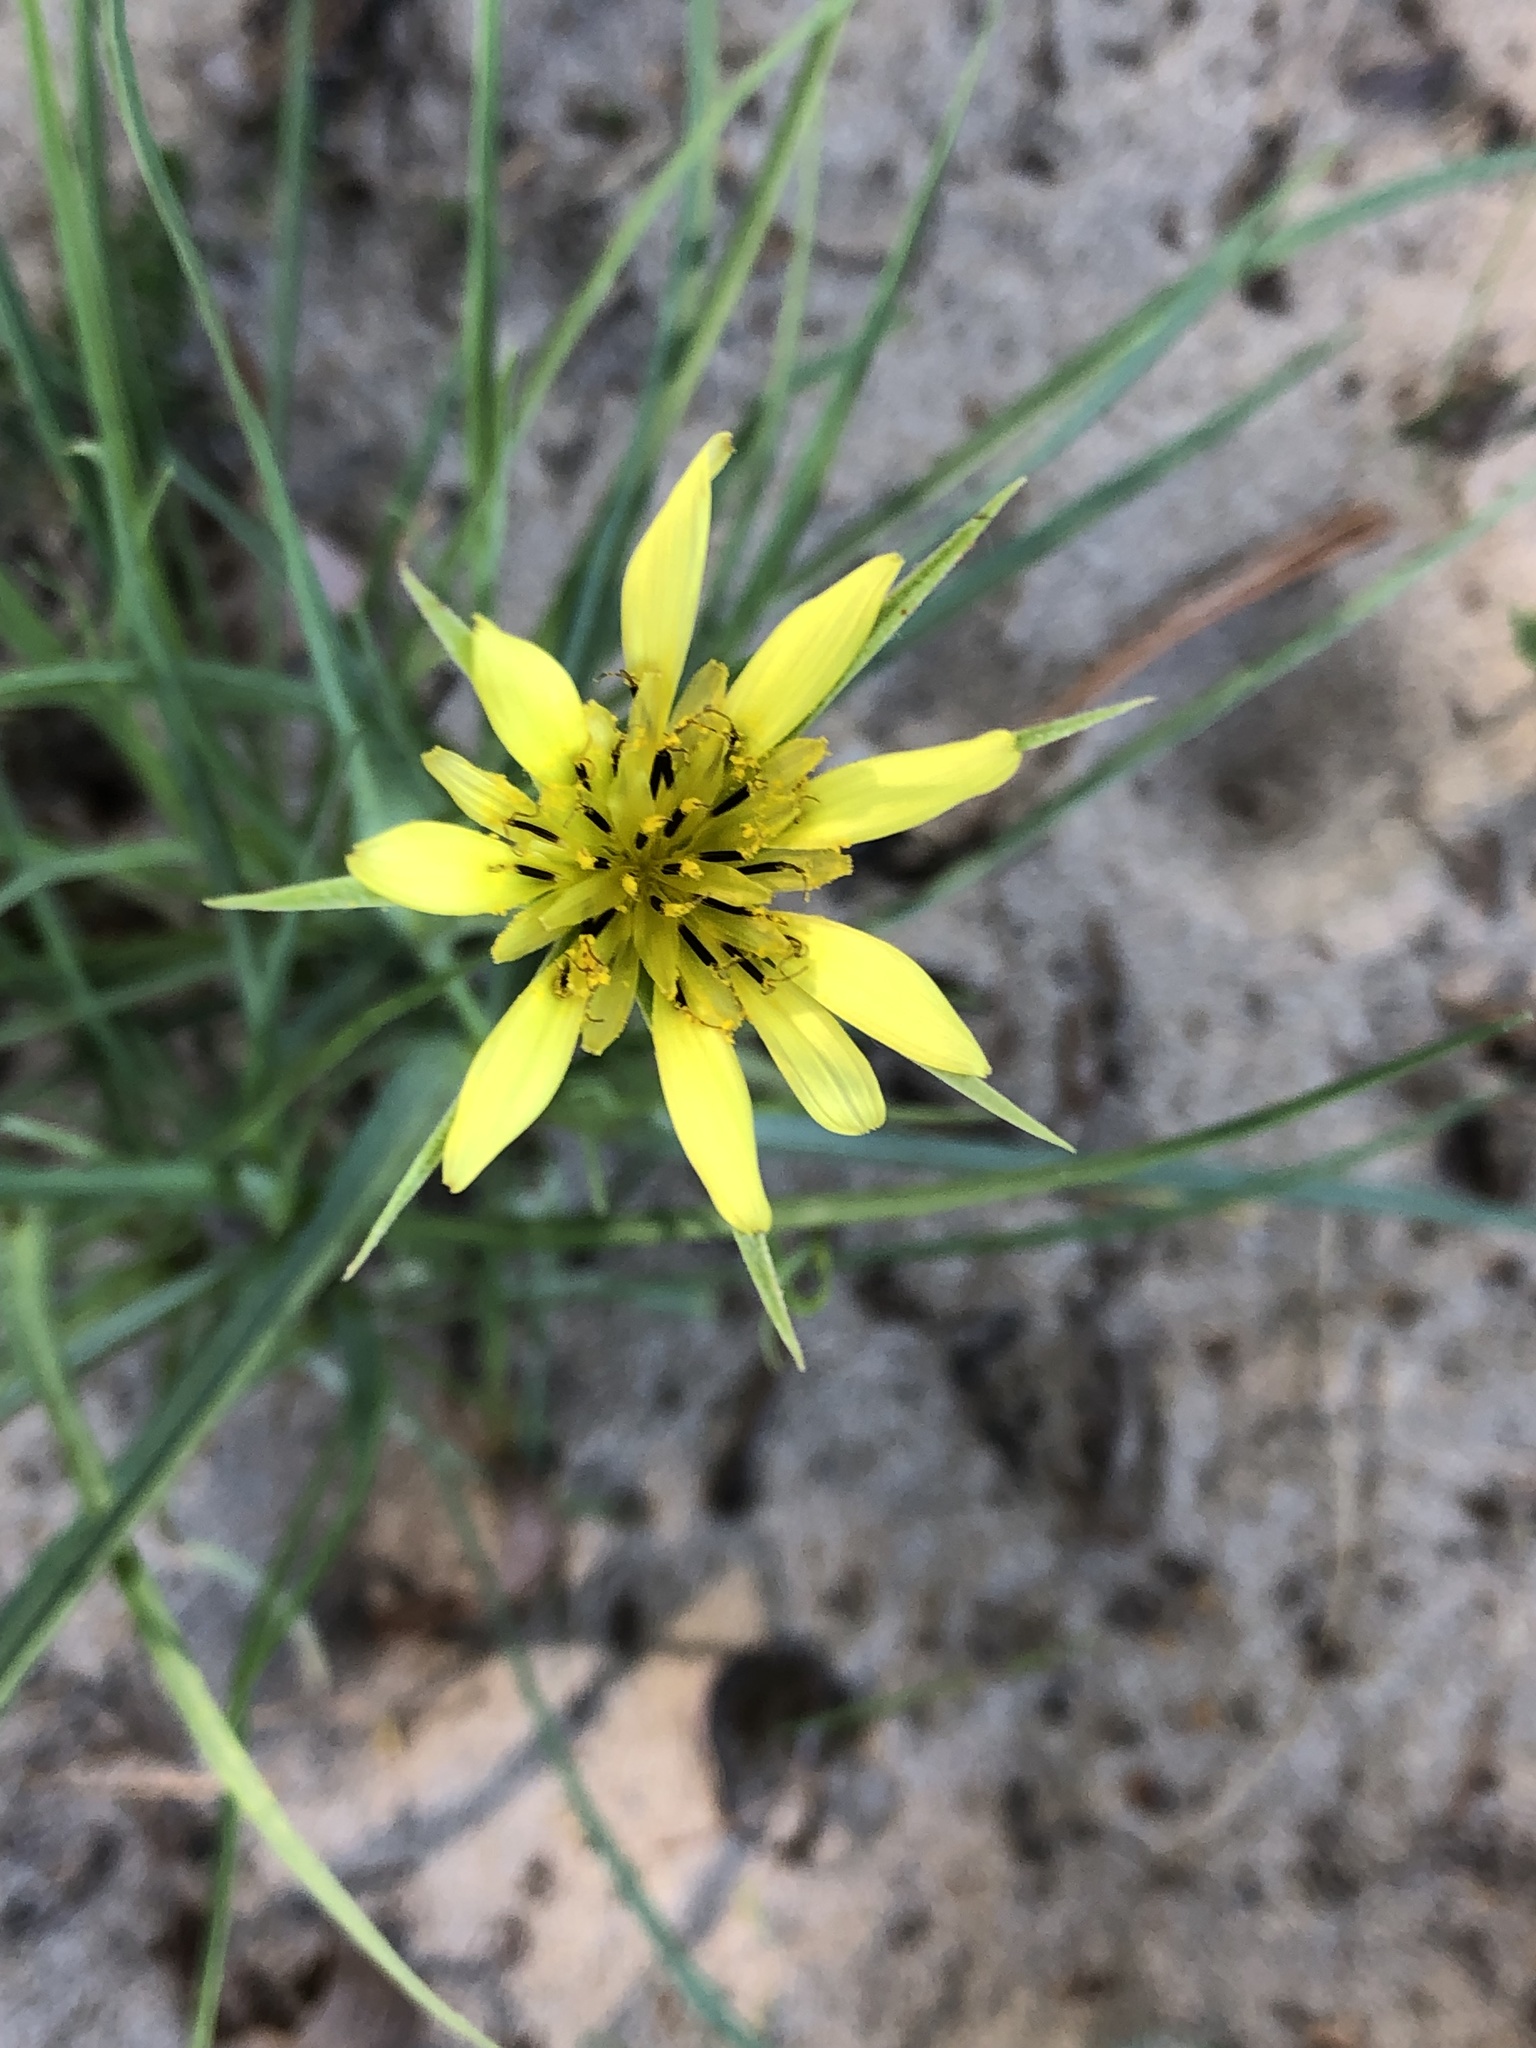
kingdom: Plantae
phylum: Tracheophyta
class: Magnoliopsida
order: Asterales
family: Asteraceae
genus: Tragopogon
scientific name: Tragopogon dubius
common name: Yellow salsify
